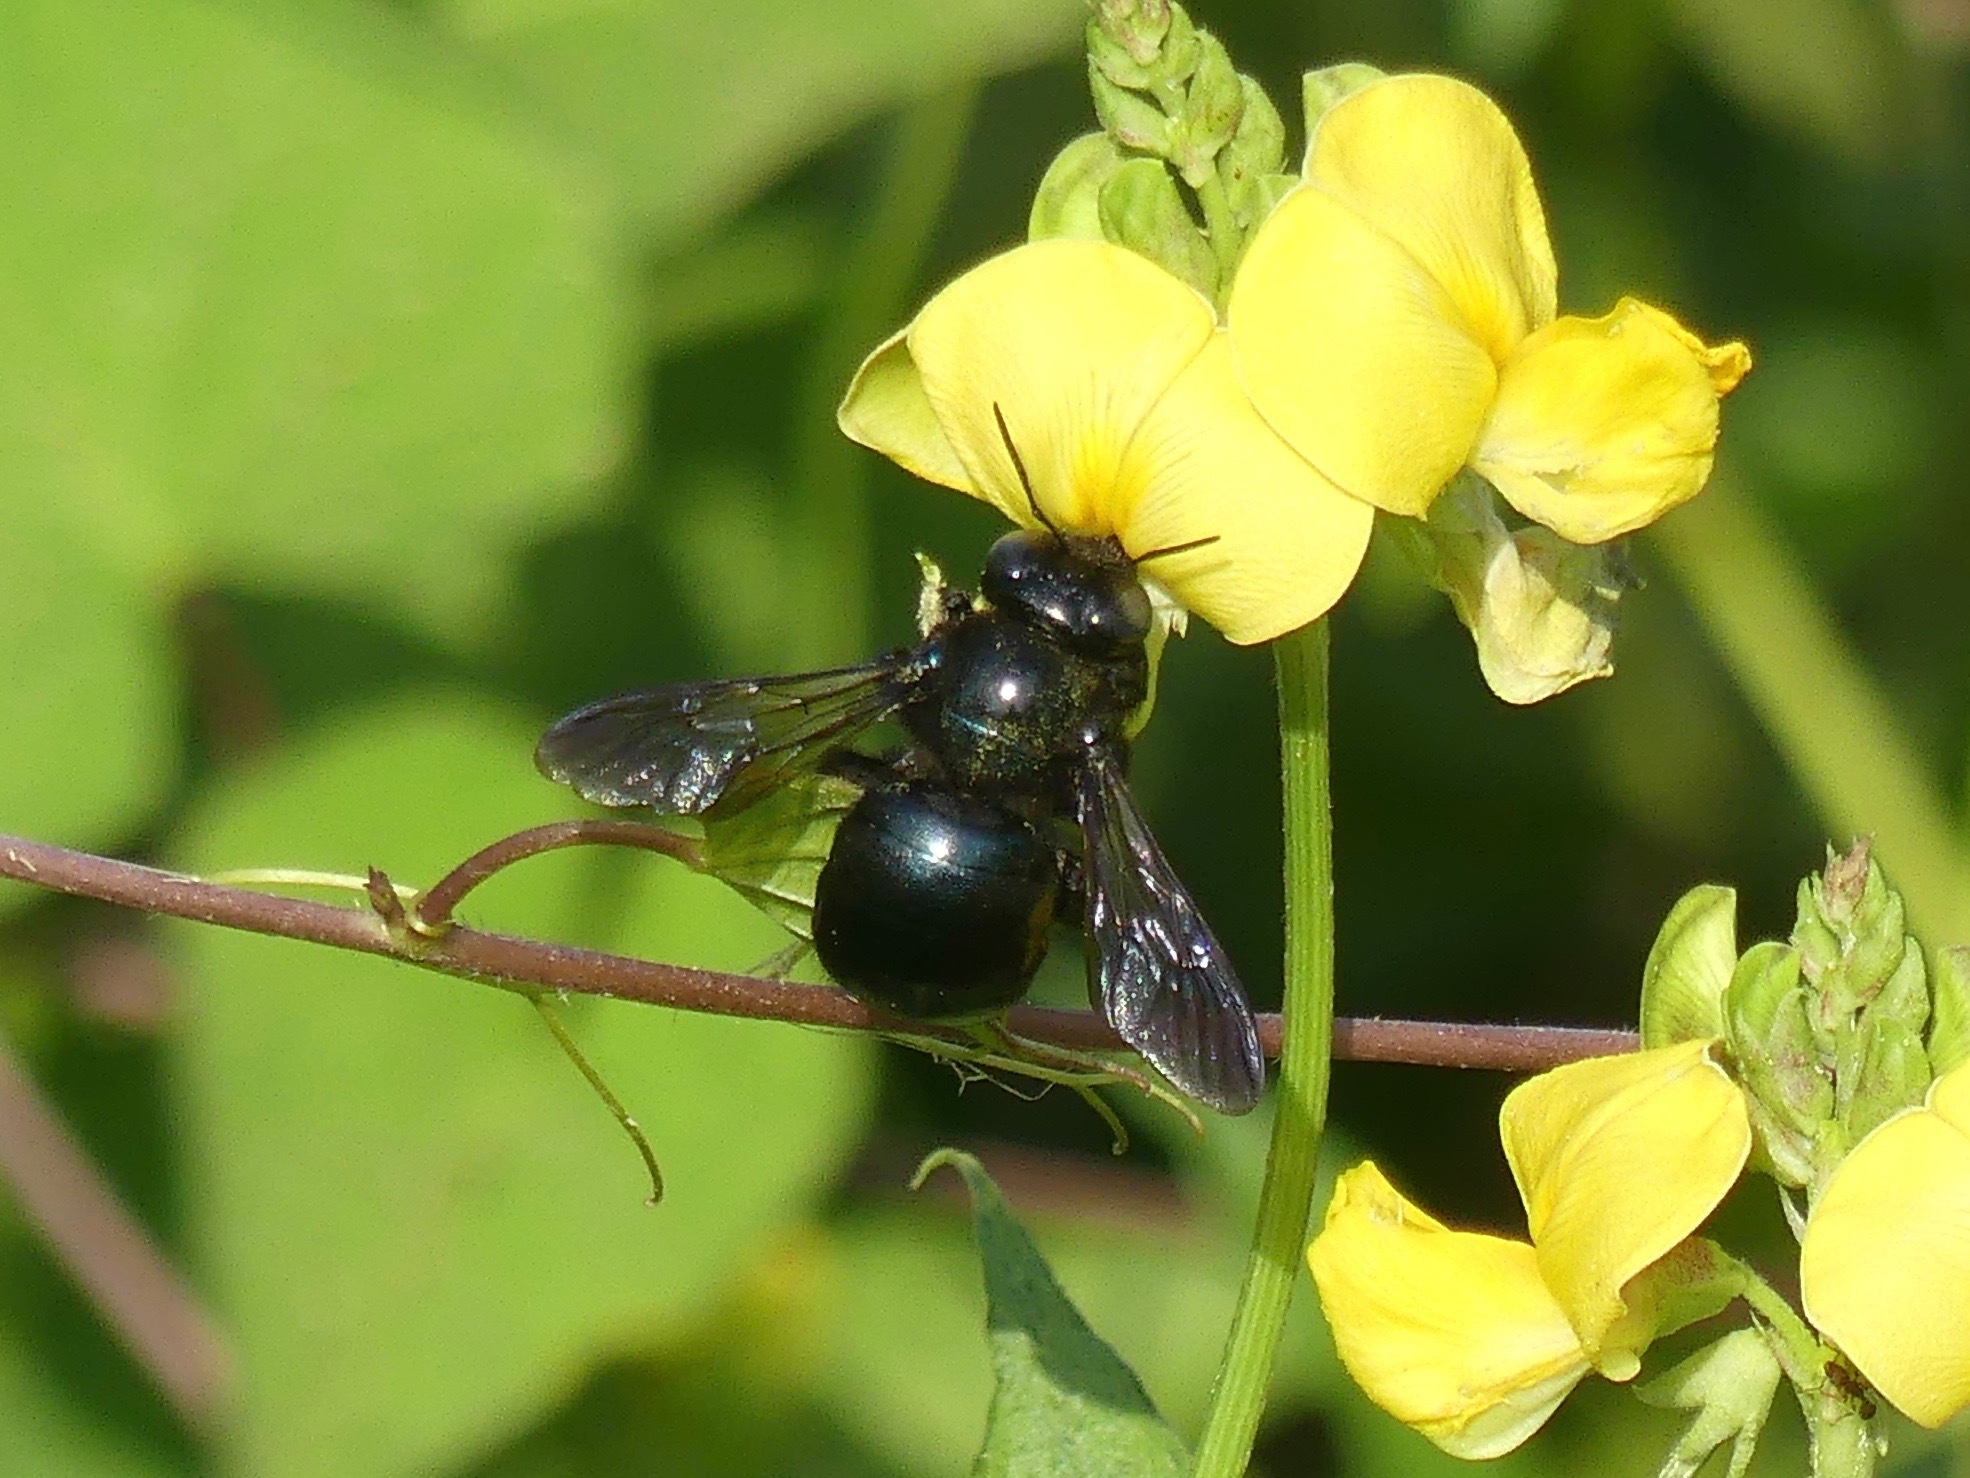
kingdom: Animalia
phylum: Arthropoda
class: Insecta
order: Hymenoptera
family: Apidae
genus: Xylocopa
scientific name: Xylocopa micans
